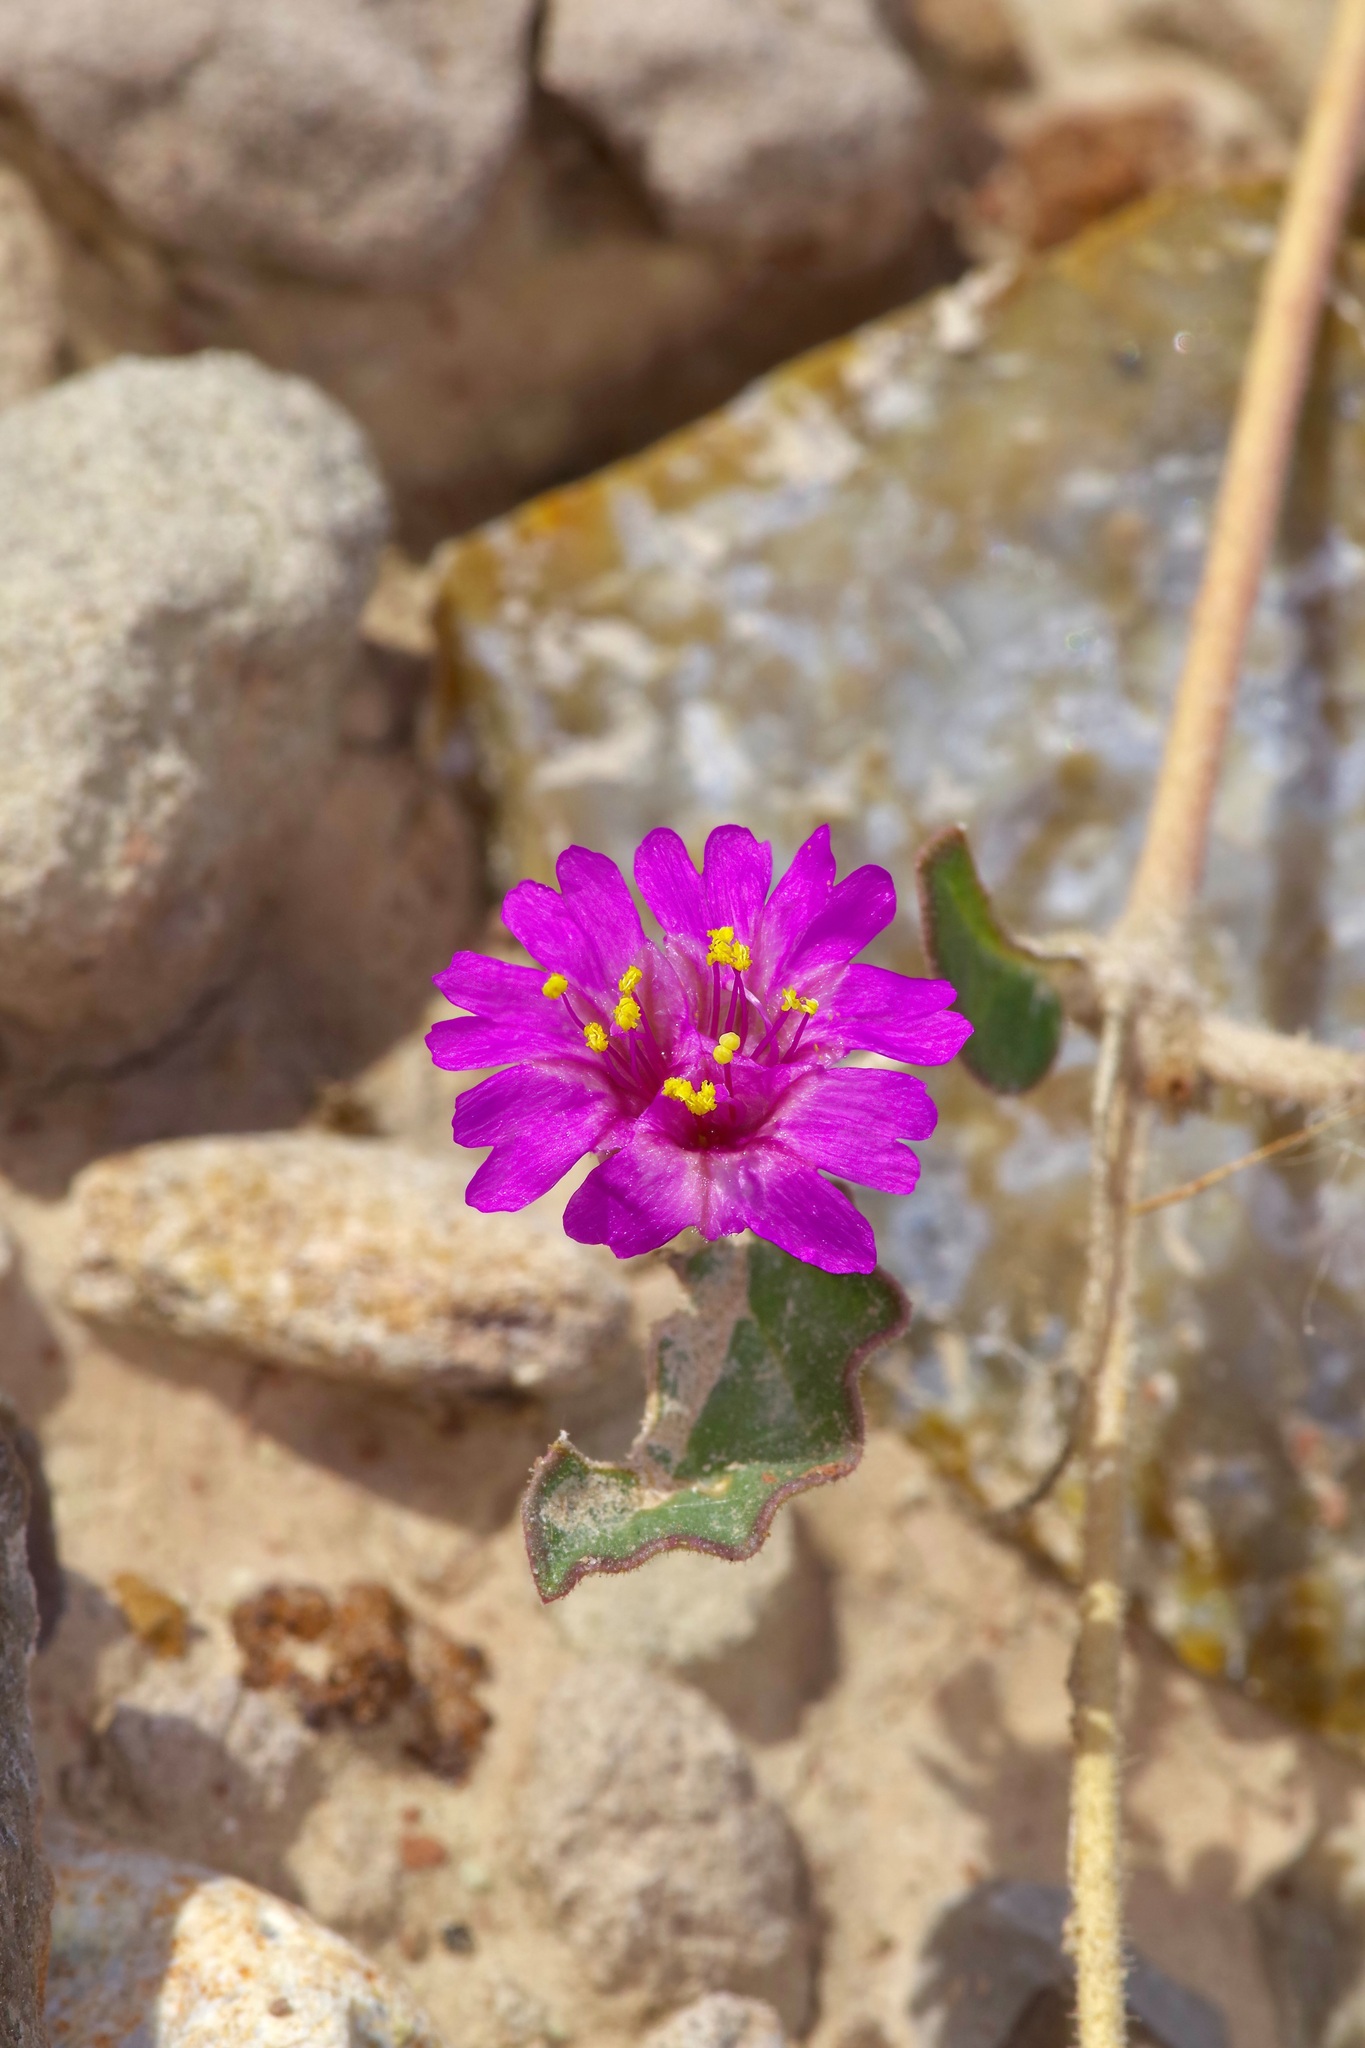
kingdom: Plantae
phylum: Tracheophyta
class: Magnoliopsida
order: Caryophyllales
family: Nyctaginaceae
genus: Allionia
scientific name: Allionia incarnata
